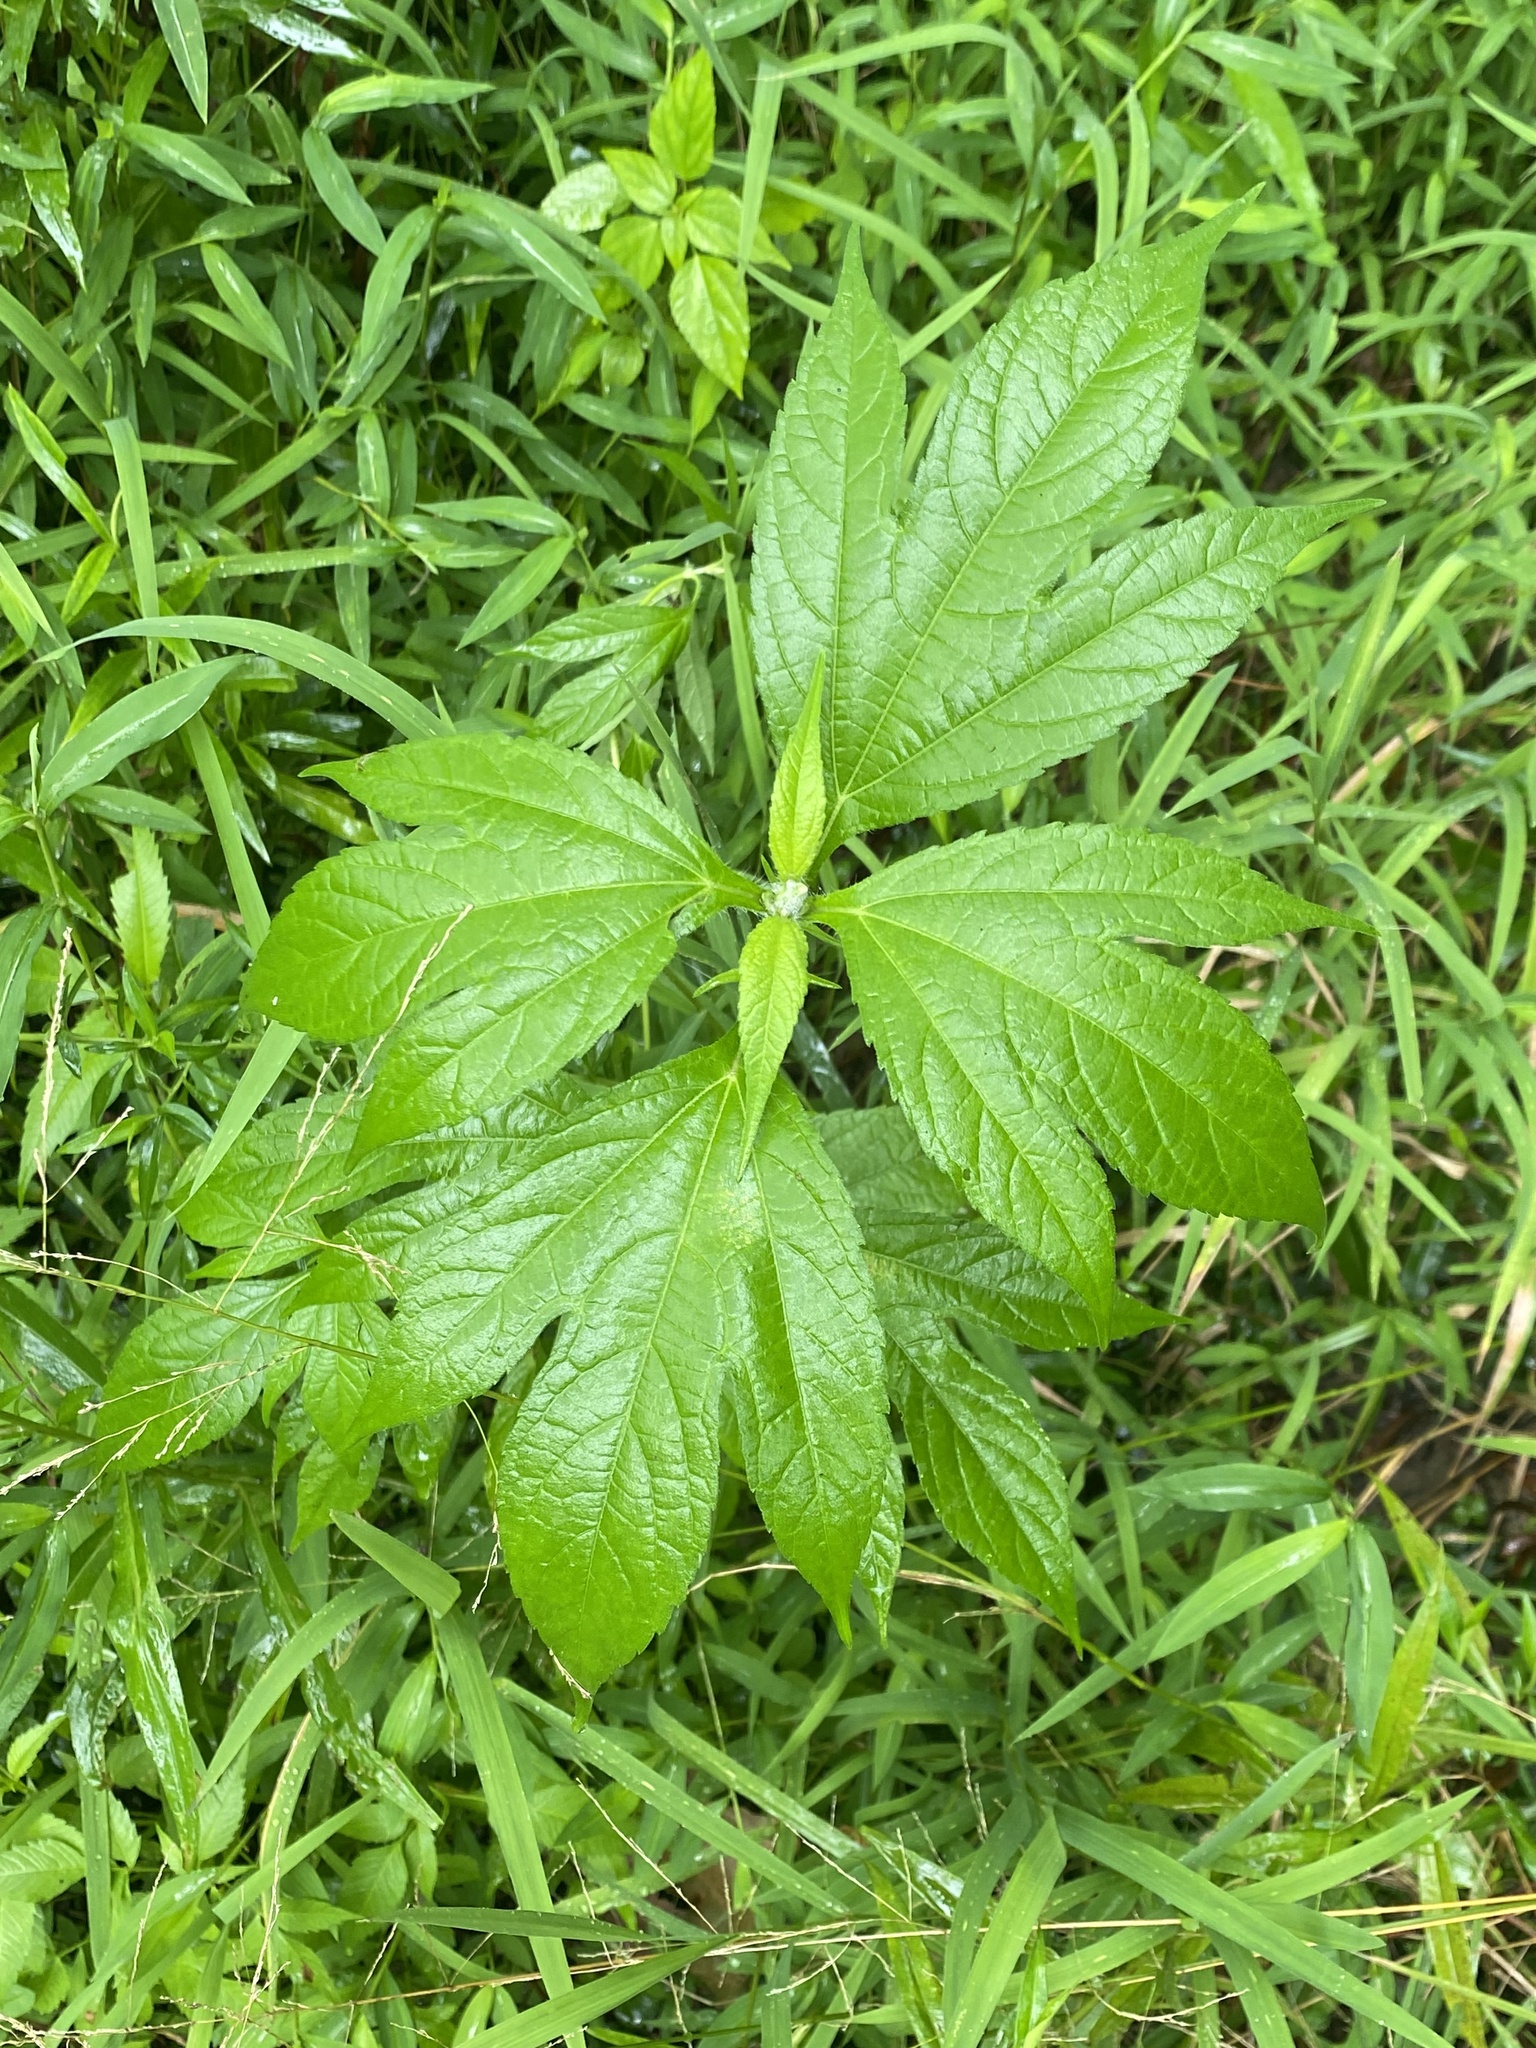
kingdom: Plantae
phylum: Tracheophyta
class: Magnoliopsida
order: Asterales
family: Asteraceae
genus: Ambrosia
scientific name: Ambrosia trifida
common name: Giant ragweed
